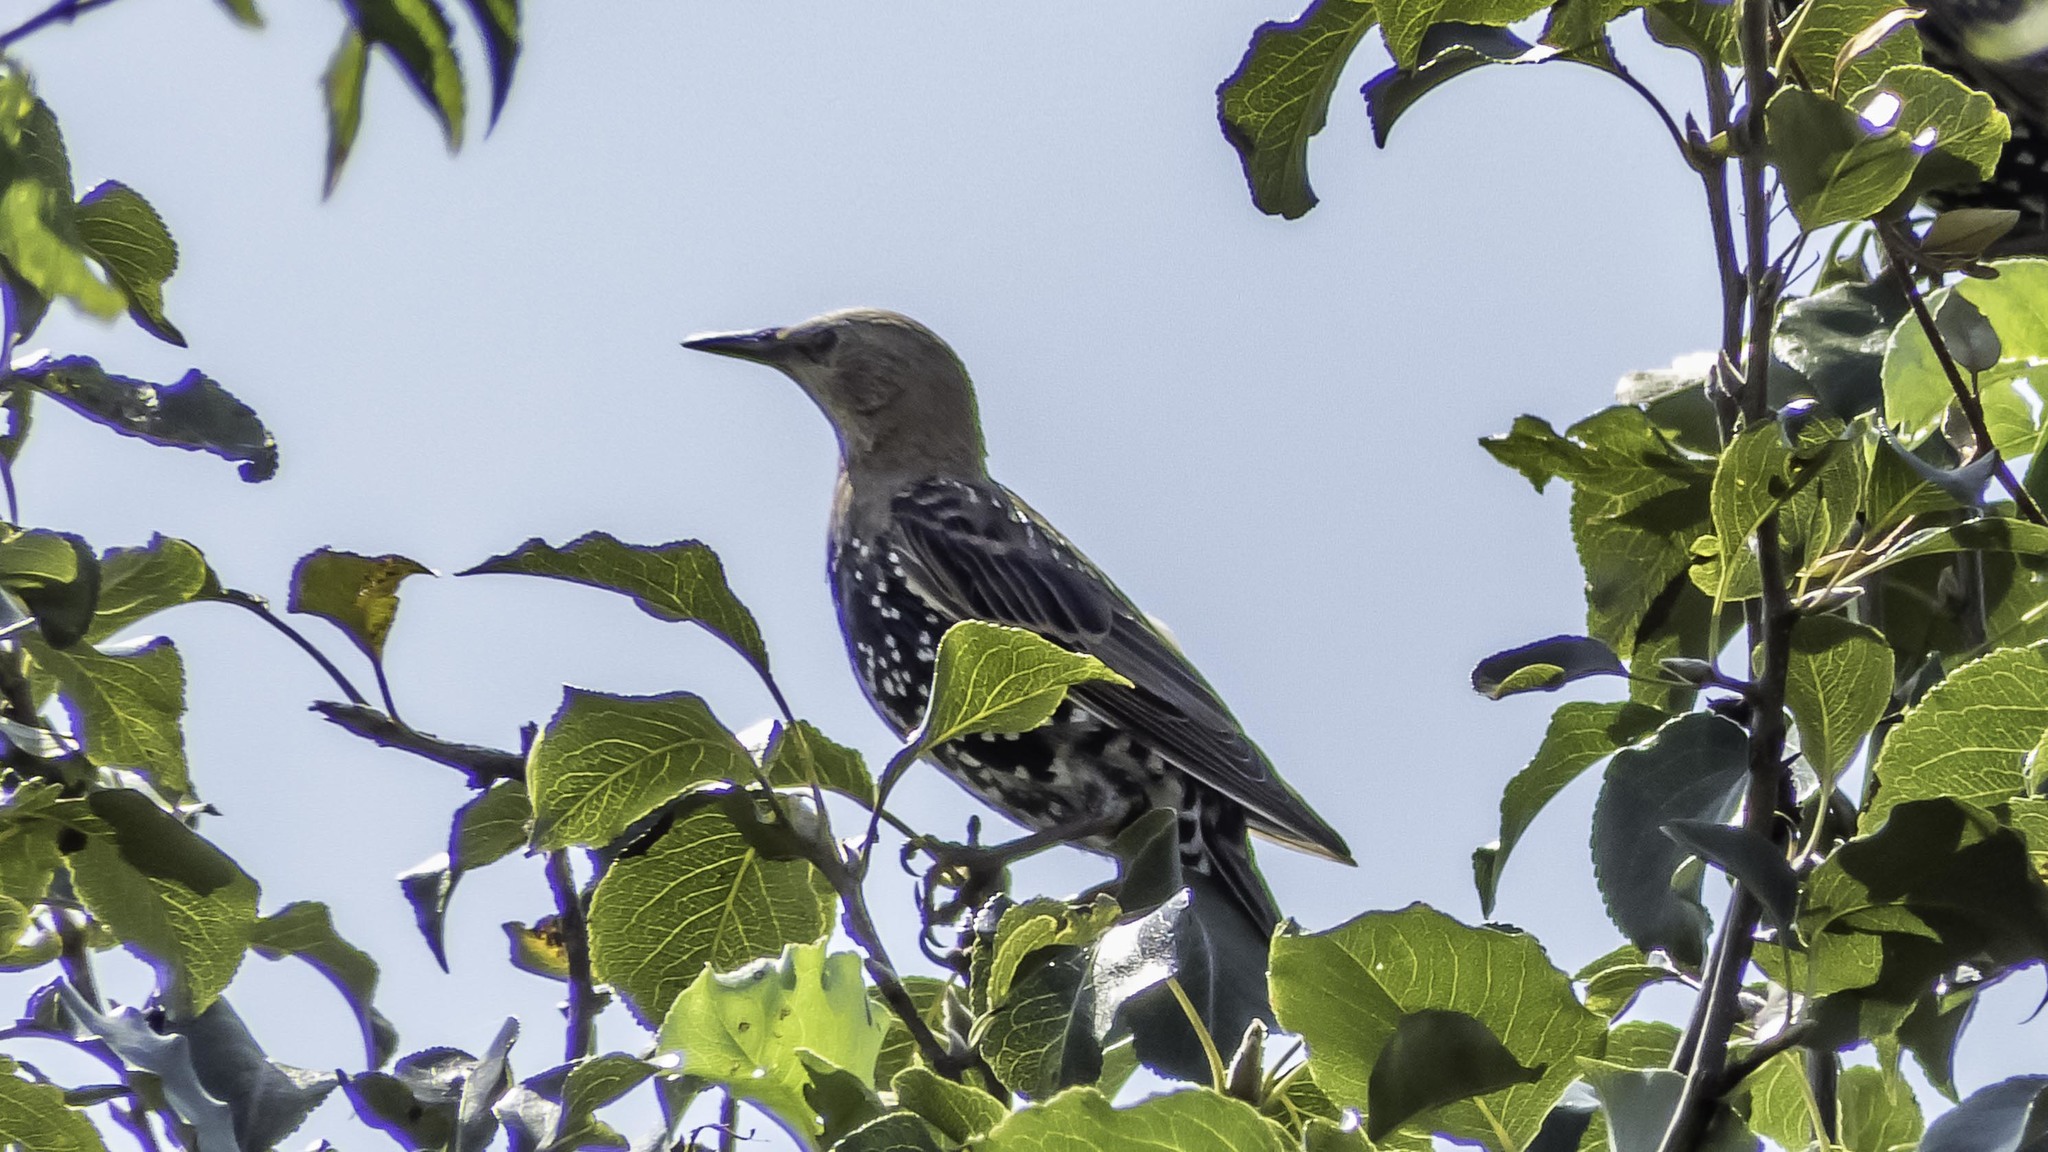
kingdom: Animalia
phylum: Chordata
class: Aves
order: Passeriformes
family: Sturnidae
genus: Sturnus
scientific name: Sturnus vulgaris
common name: Common starling
